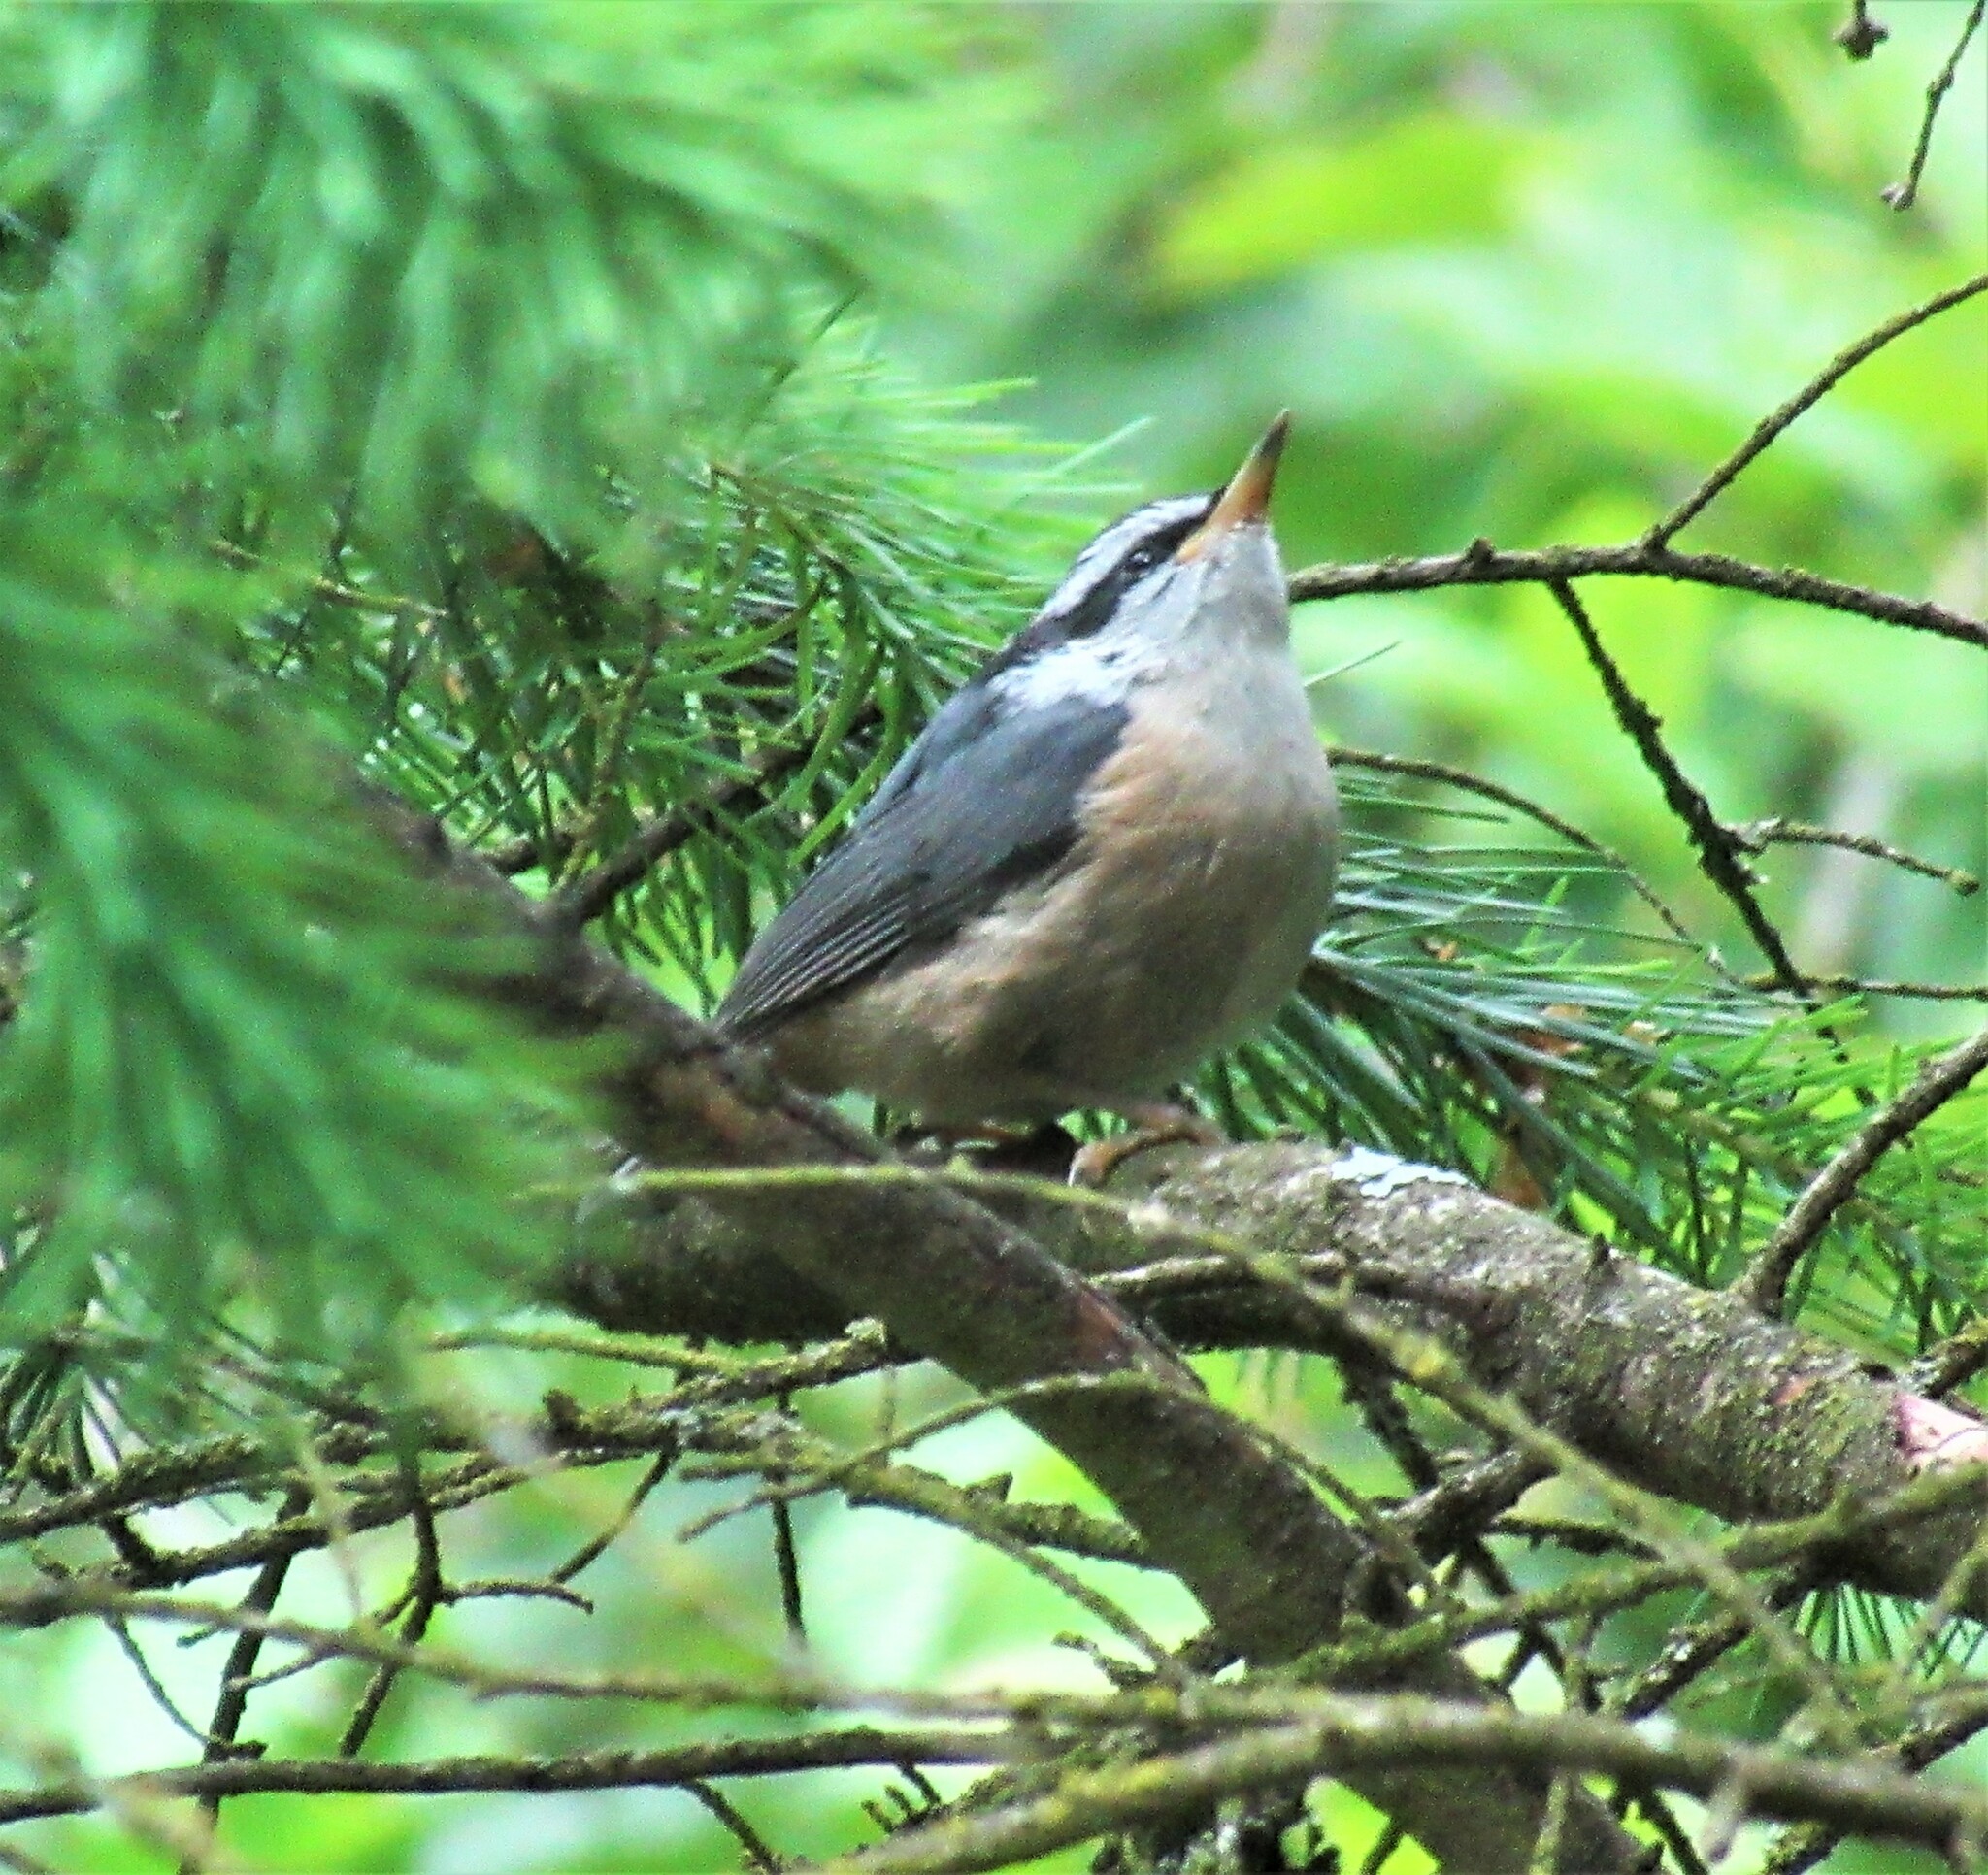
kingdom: Animalia
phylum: Chordata
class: Aves
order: Passeriformes
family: Sittidae
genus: Sitta
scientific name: Sitta canadensis
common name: Red-breasted nuthatch
